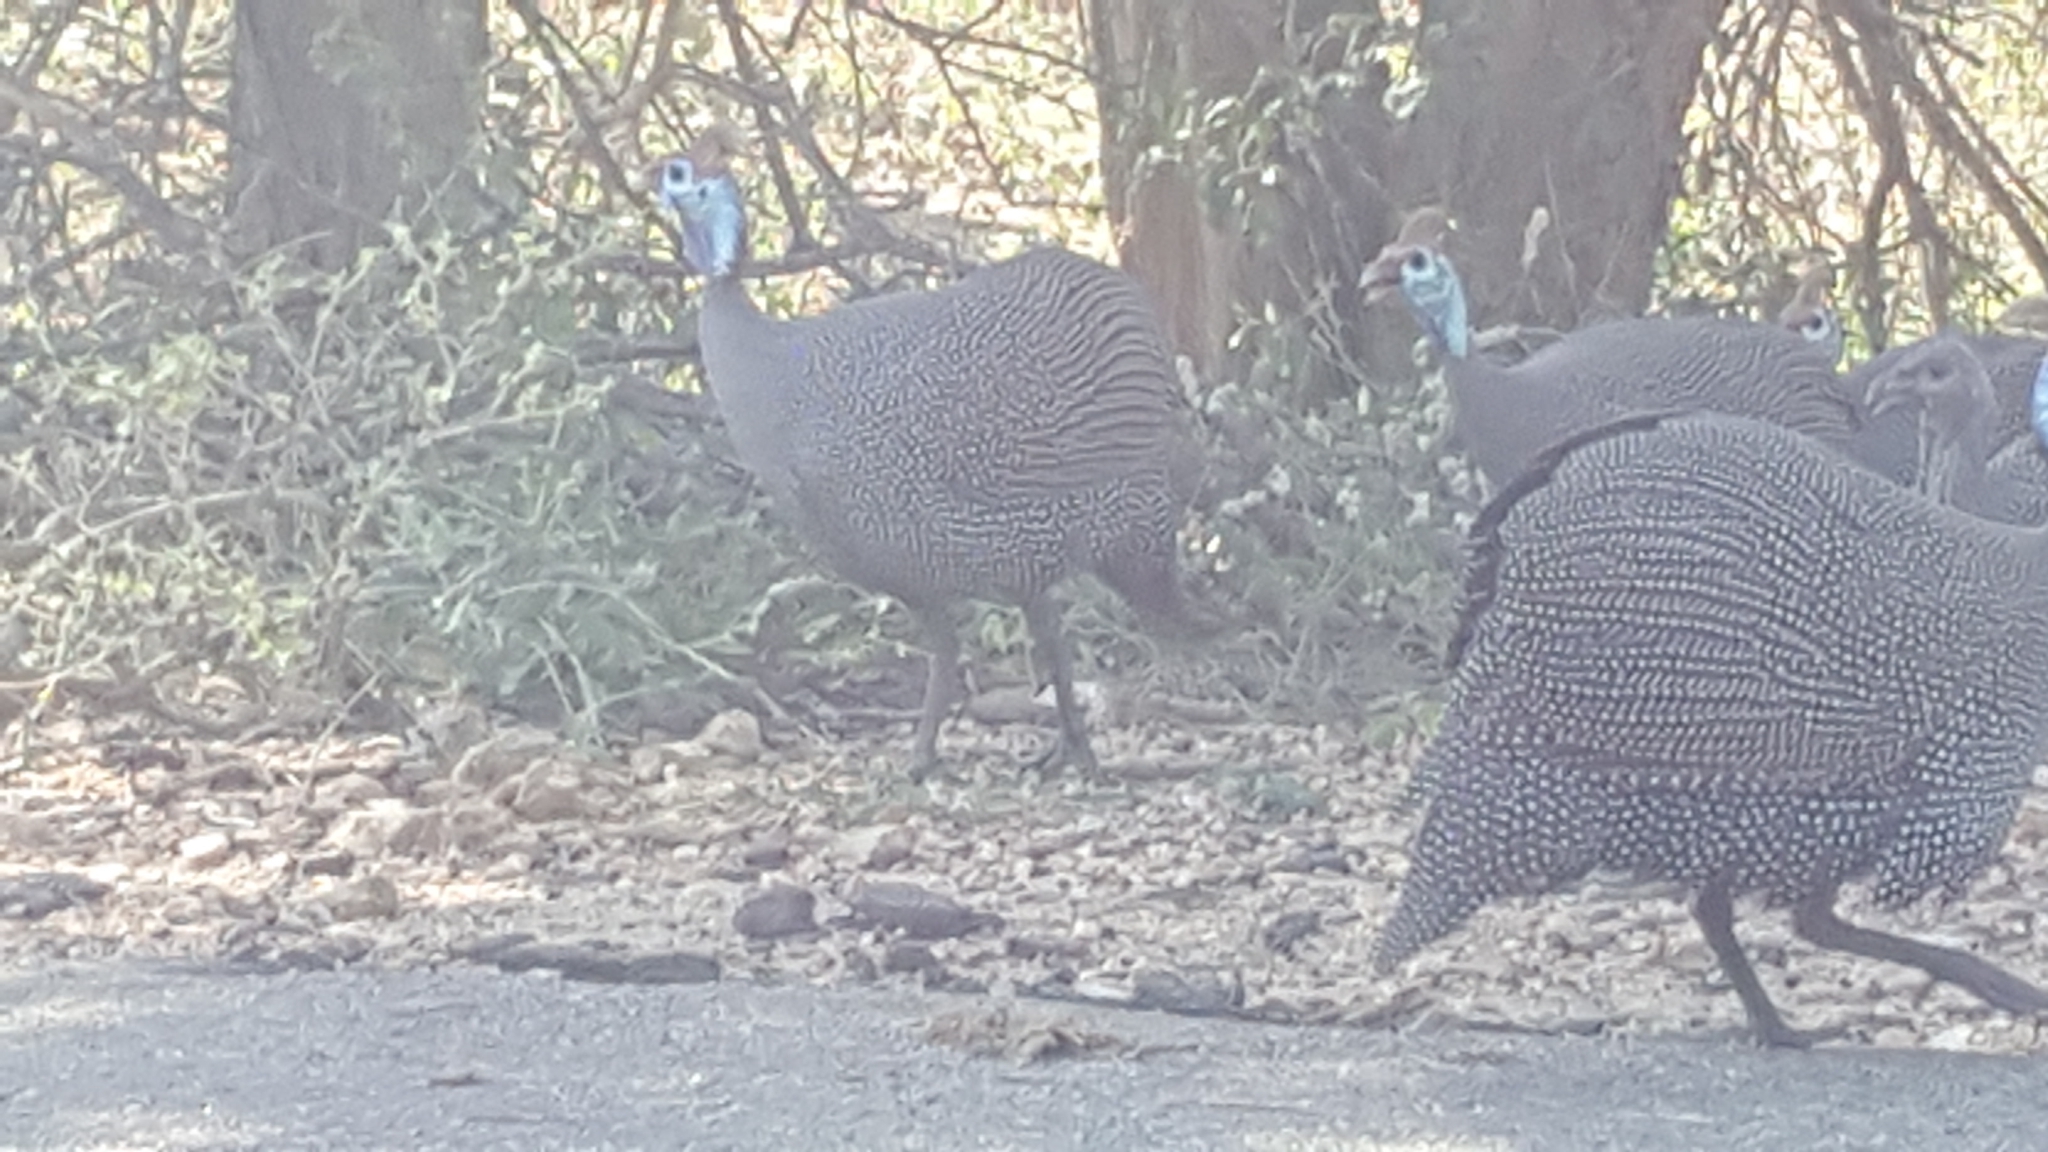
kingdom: Animalia
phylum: Chordata
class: Aves
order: Galliformes
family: Numididae
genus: Numida
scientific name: Numida meleagris
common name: Helmeted guineafowl
